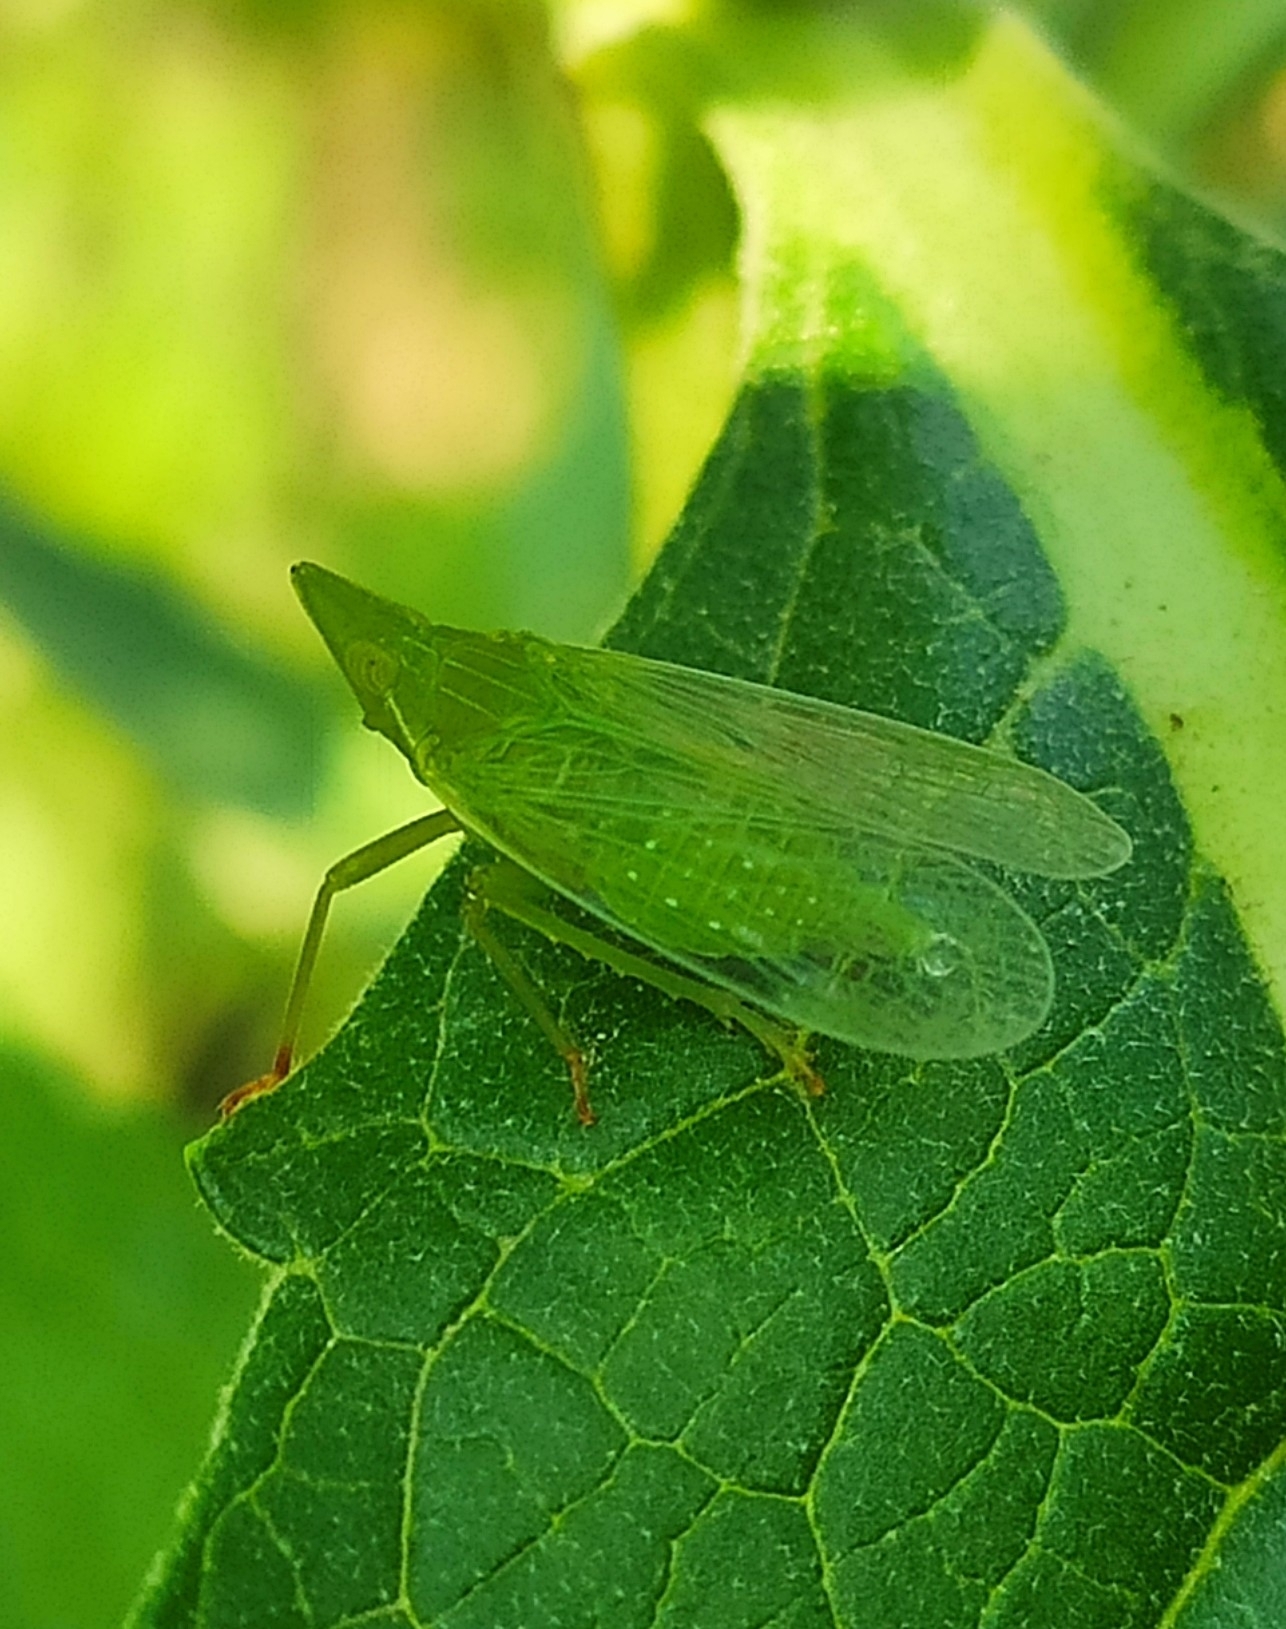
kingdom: Animalia
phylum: Arthropoda
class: Insecta
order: Hemiptera
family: Dictyopharidae
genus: Dictyophara
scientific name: Dictyophara europaea
